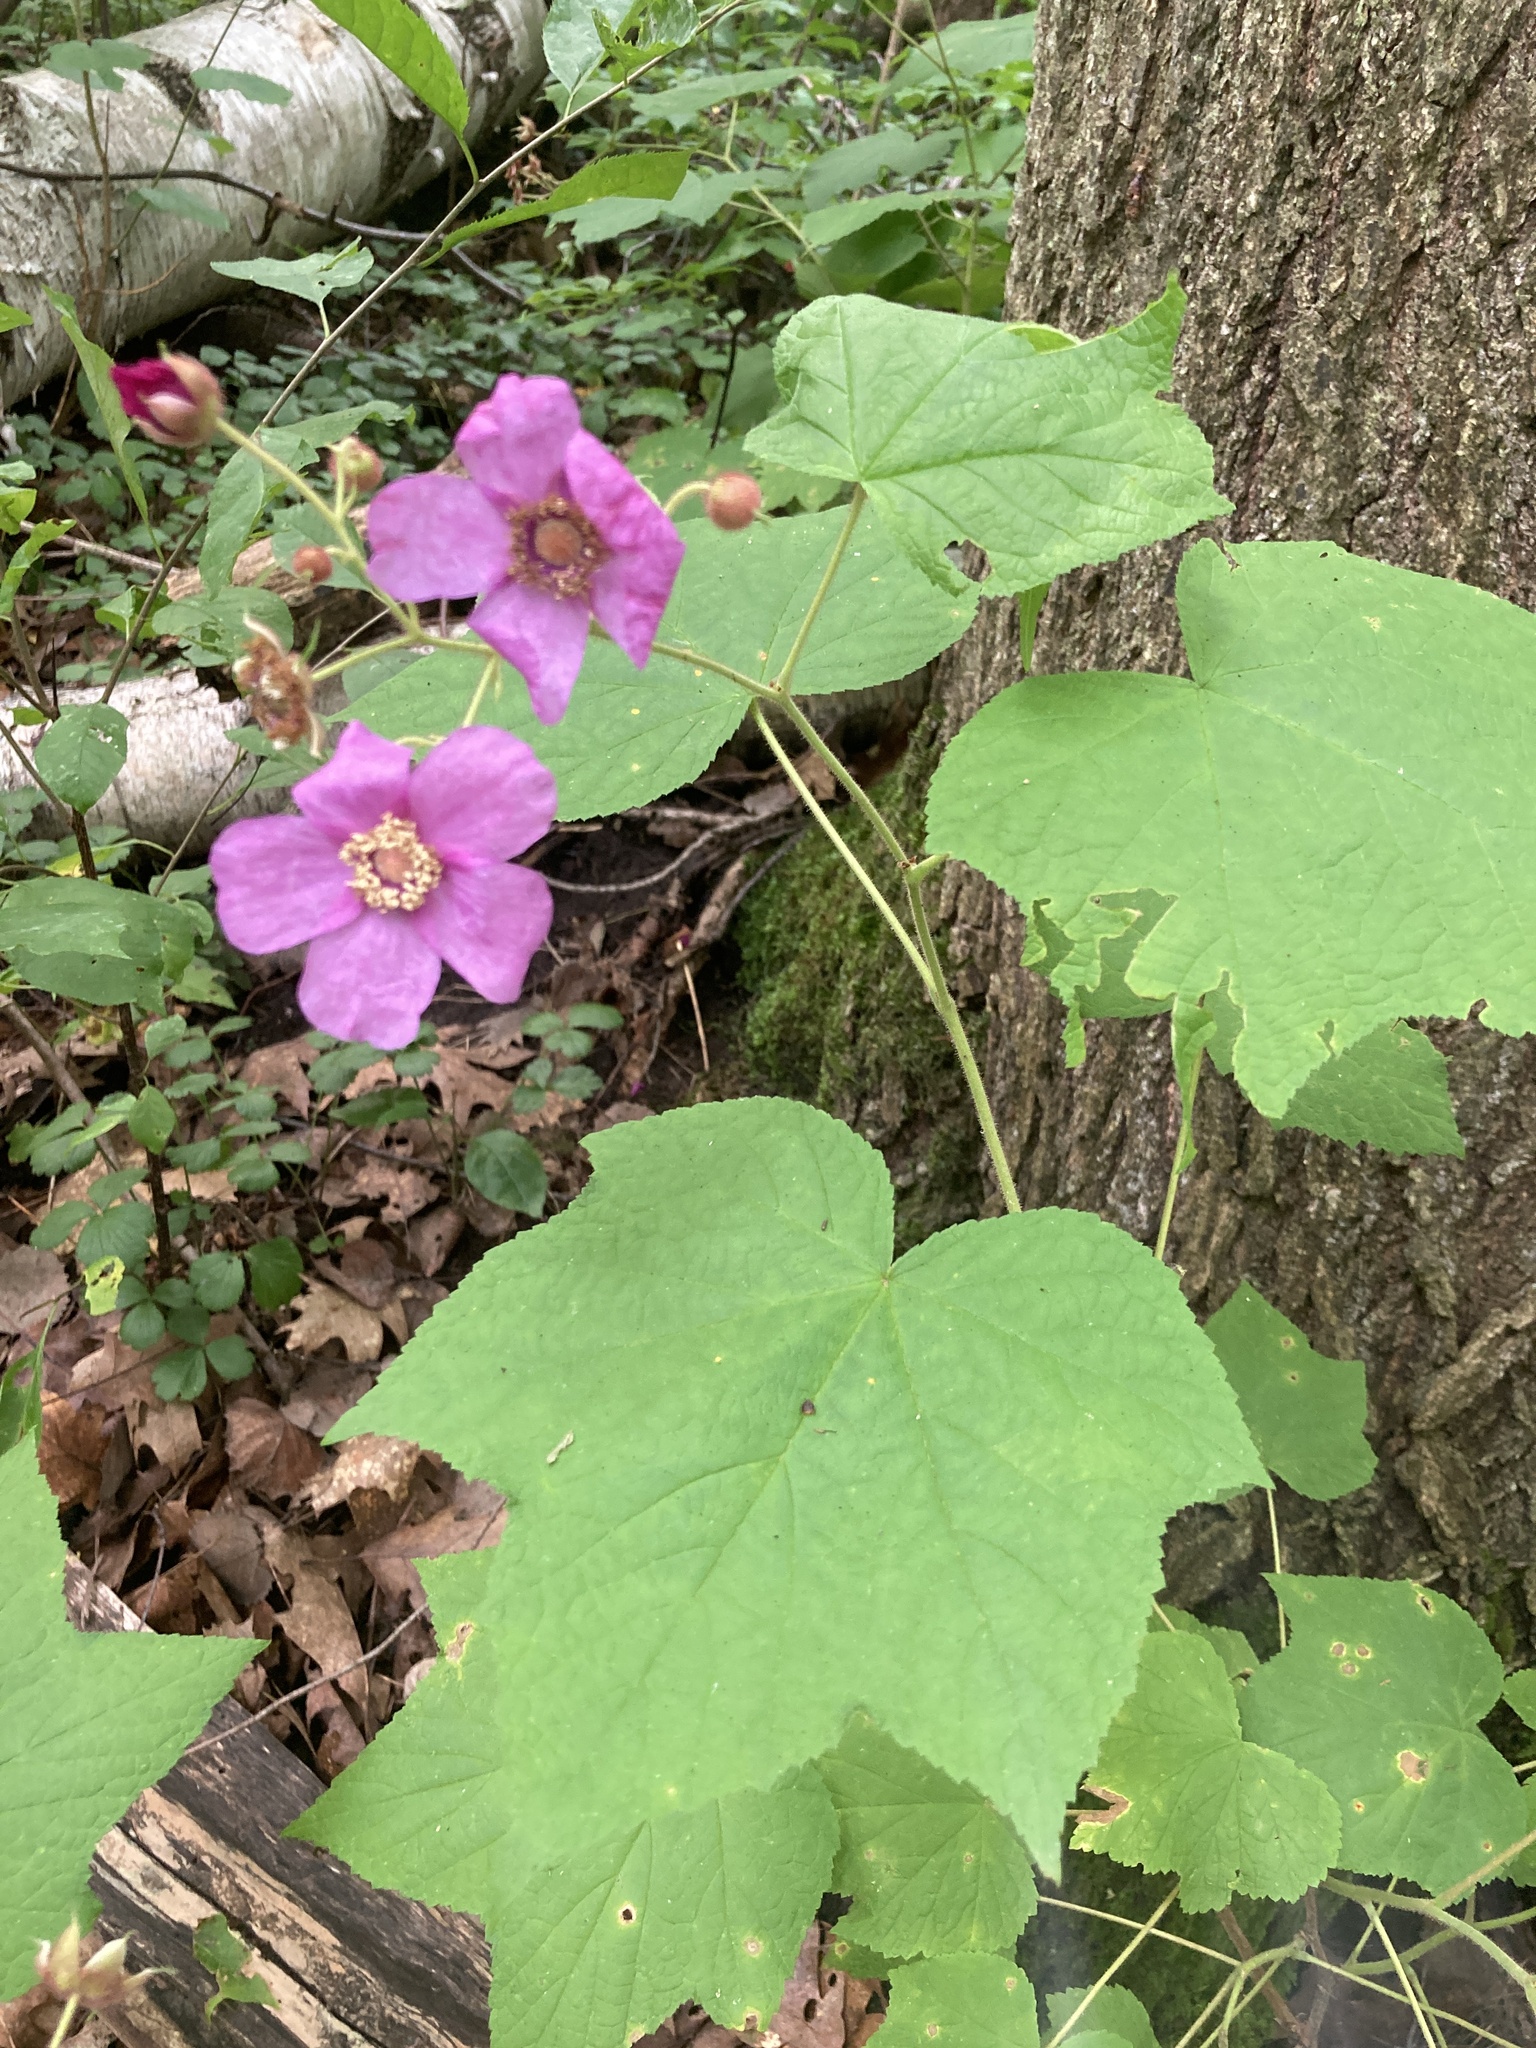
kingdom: Plantae
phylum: Tracheophyta
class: Magnoliopsida
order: Rosales
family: Rosaceae
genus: Rubus
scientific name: Rubus odoratus
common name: Purple-flowered raspberry
